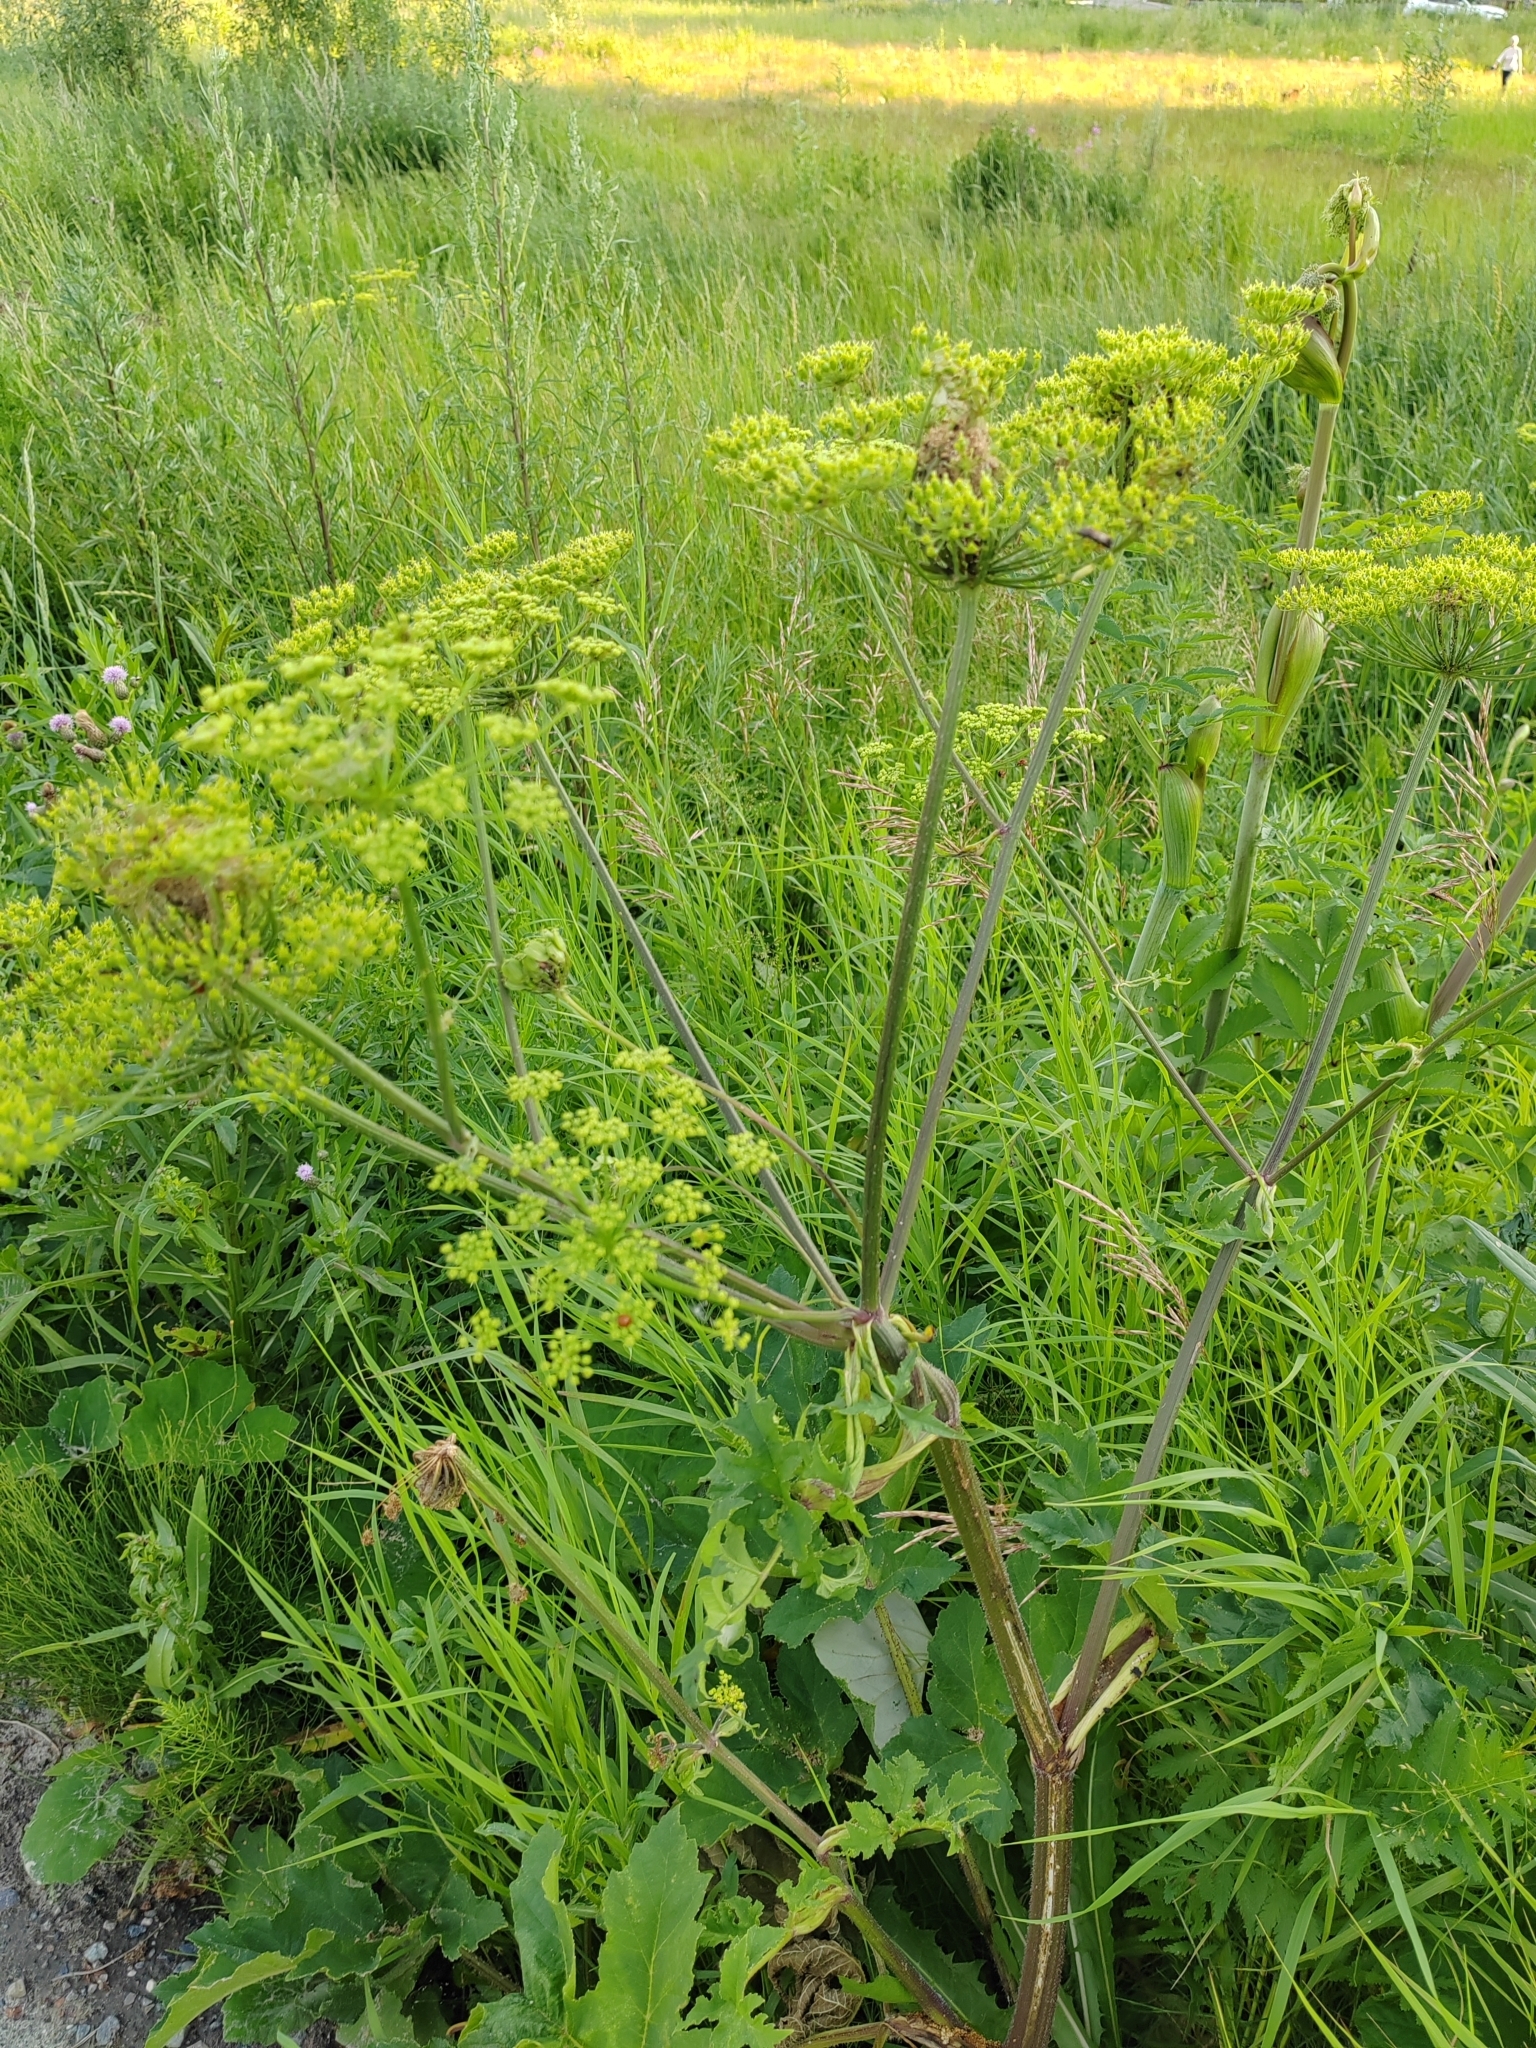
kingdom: Plantae
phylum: Tracheophyta
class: Magnoliopsida
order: Apiales
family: Apiaceae
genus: Heracleum
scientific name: Heracleum sphondylium
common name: Hogweed
